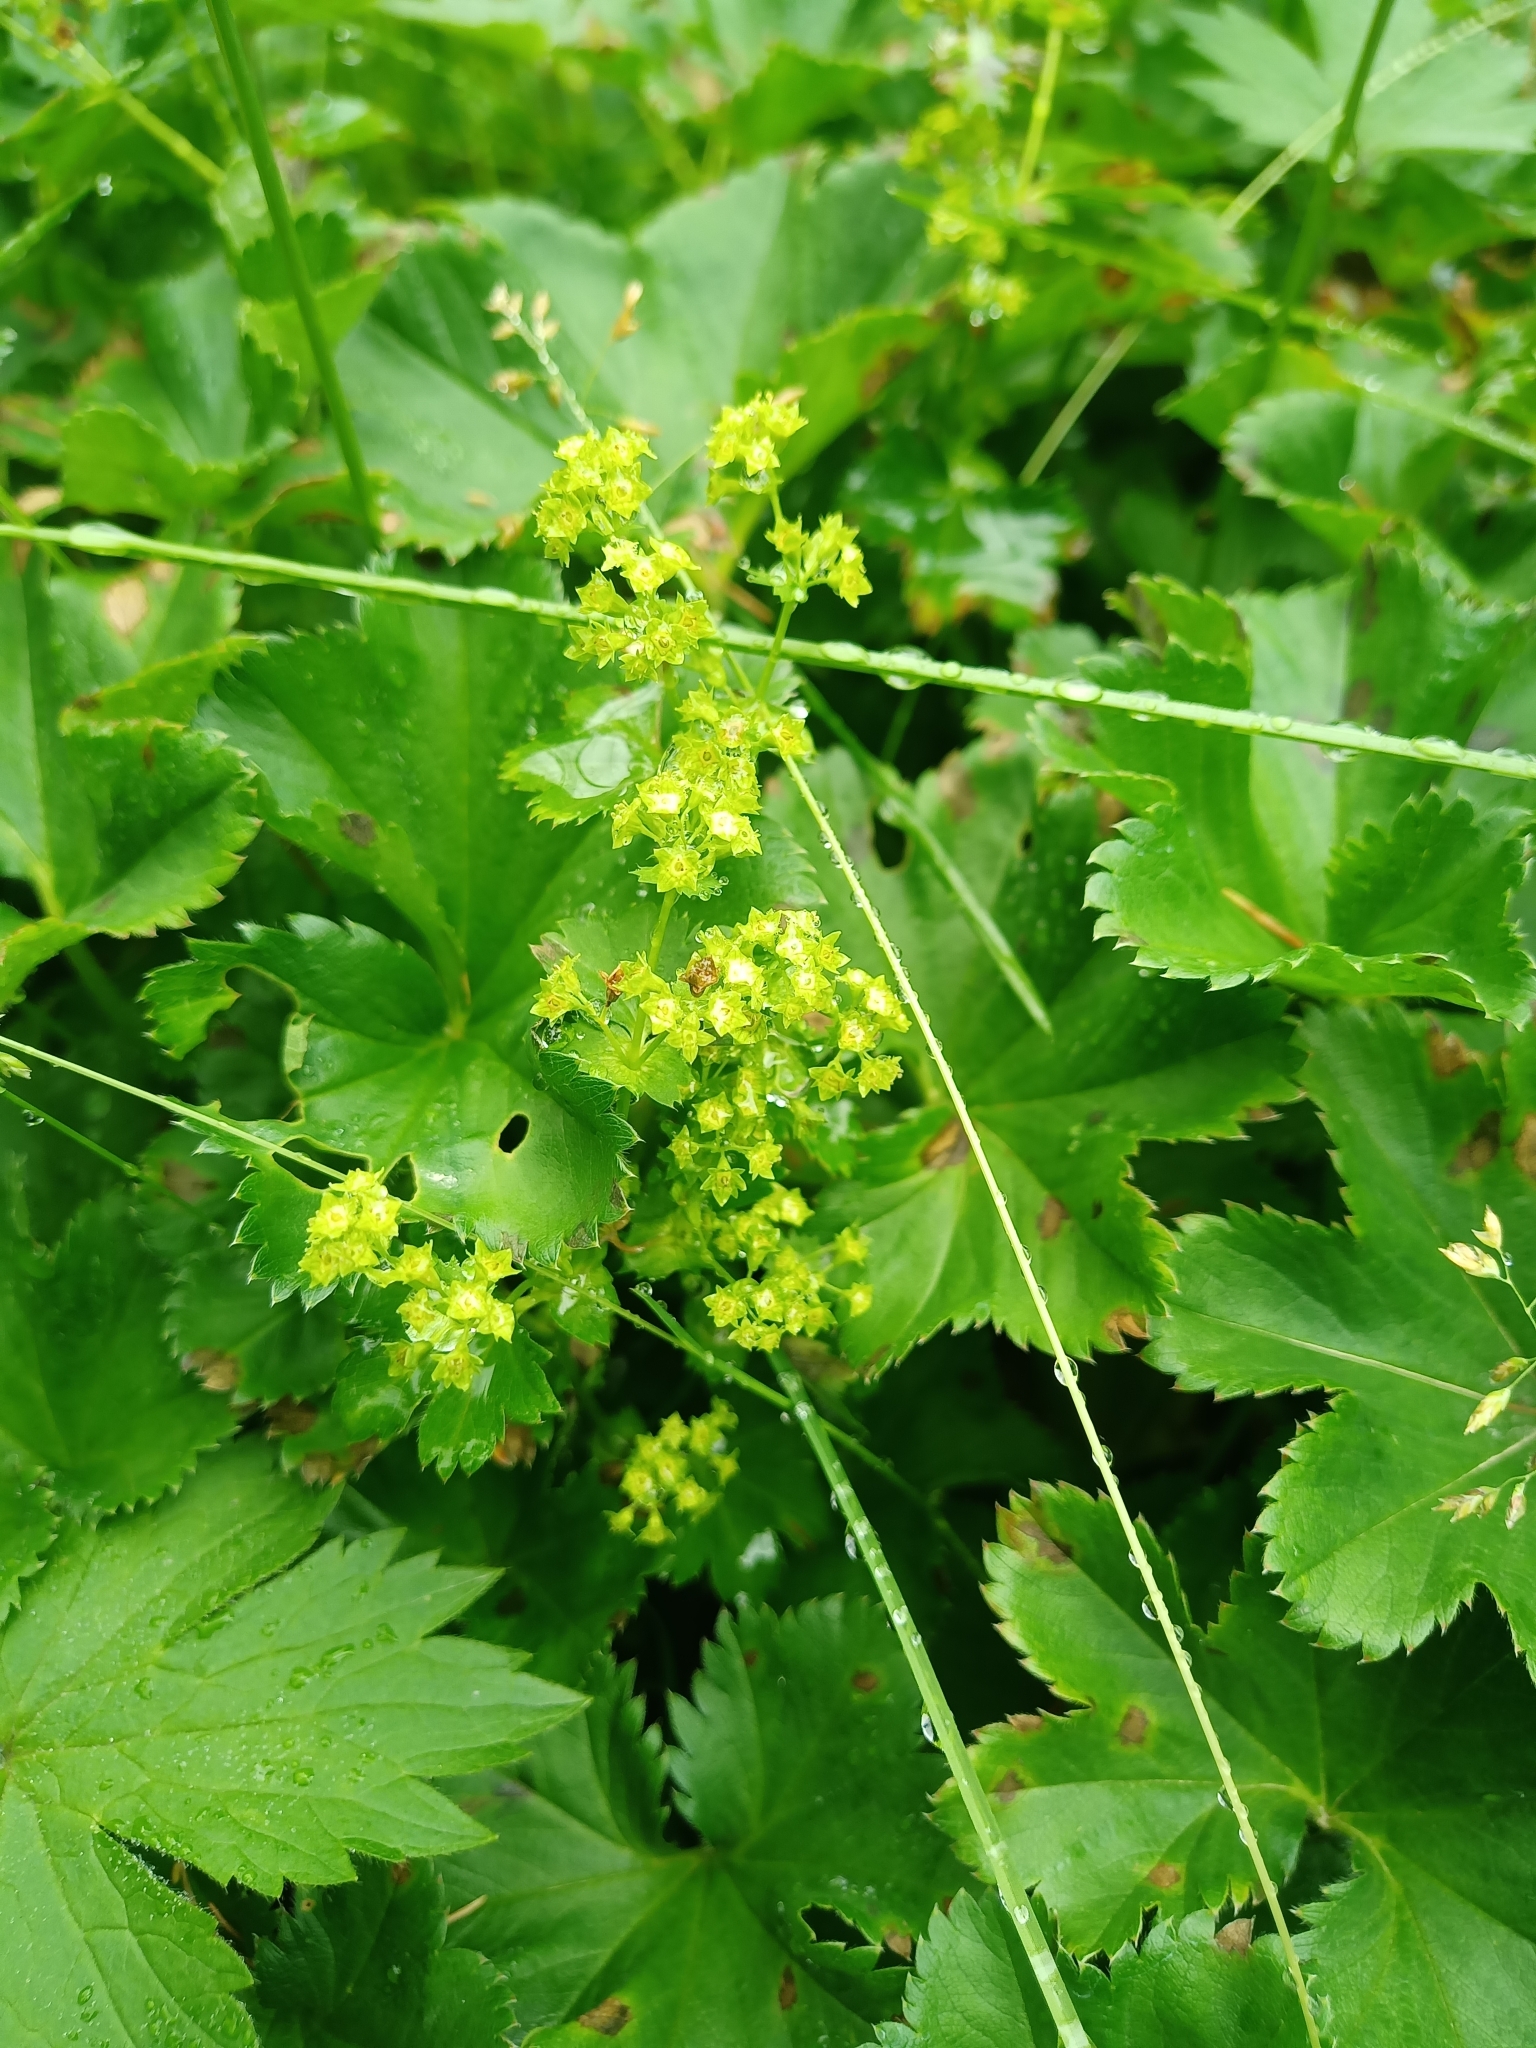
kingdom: Plantae
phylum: Tracheophyta
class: Magnoliopsida
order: Rosales
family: Rosaceae
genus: Alchemilla
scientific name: Alchemilla cymatophylla
